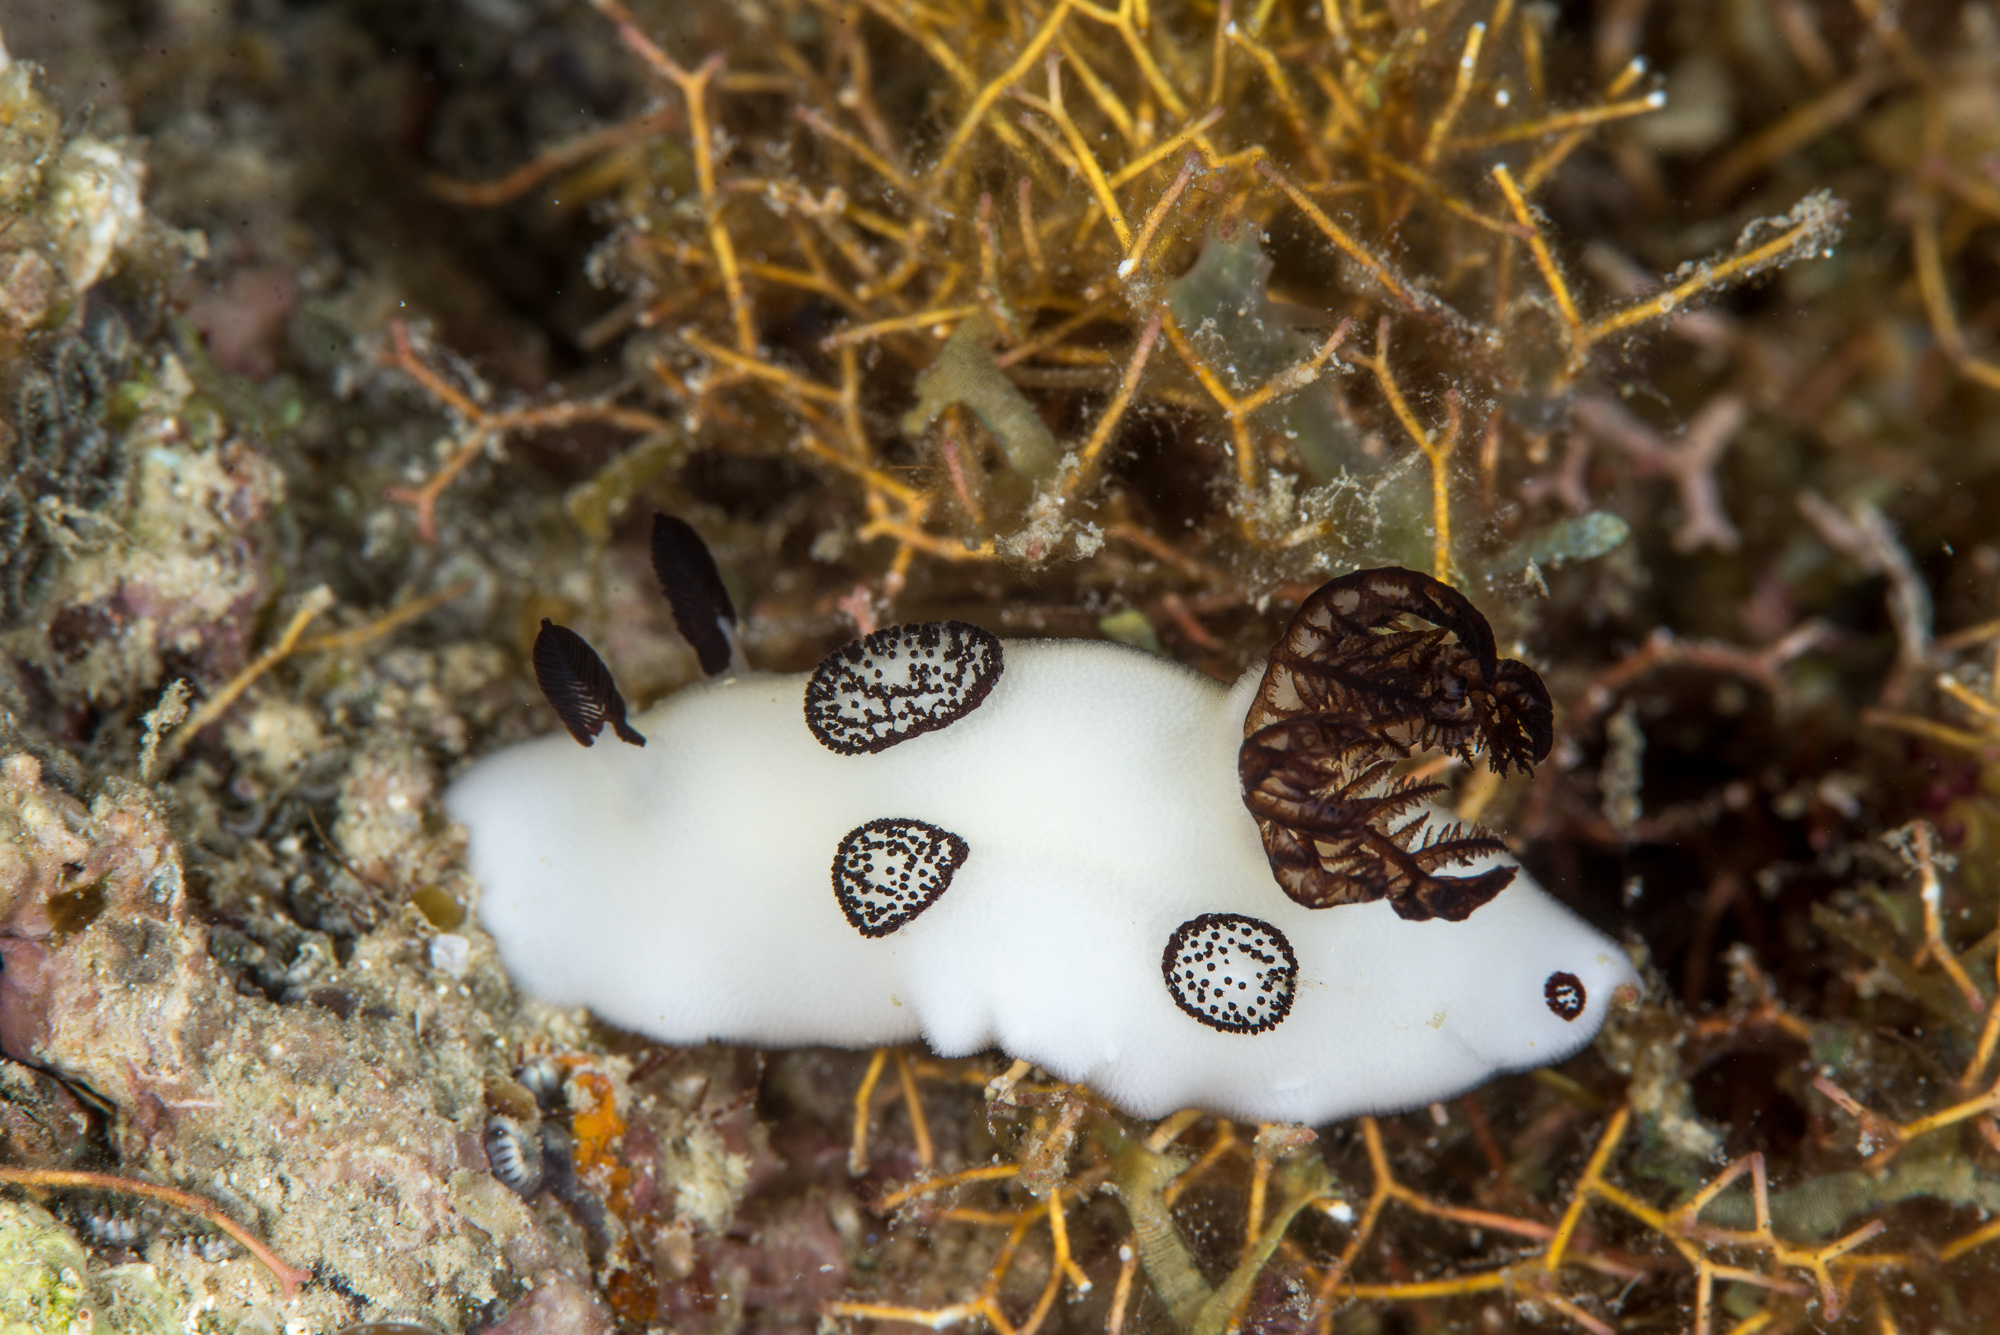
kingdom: Animalia
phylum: Mollusca
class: Gastropoda
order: Nudibranchia
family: Discodorididae
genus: Jorunna
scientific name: Jorunna funebris
